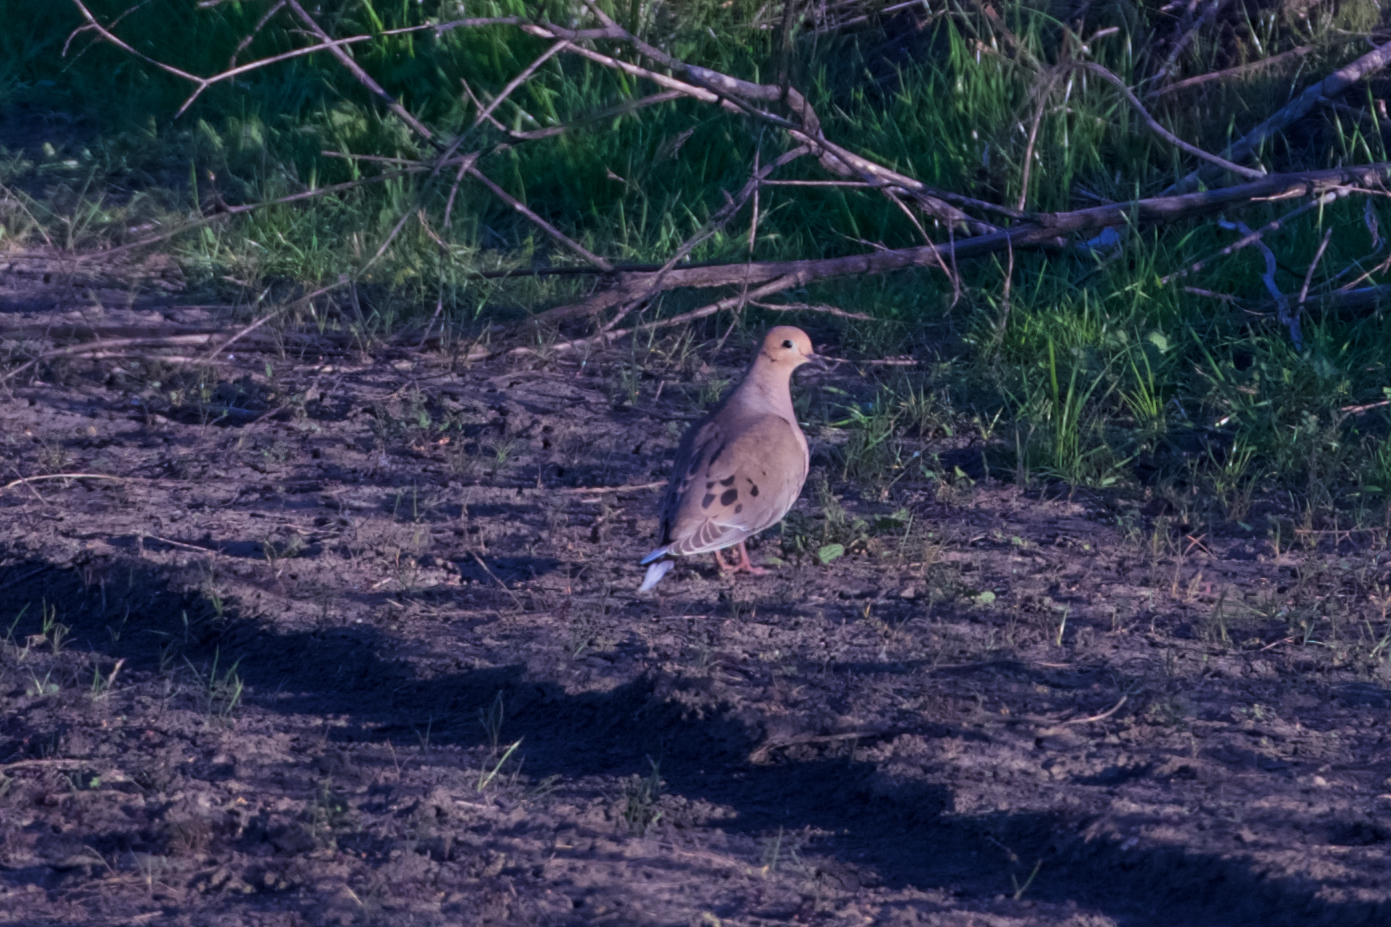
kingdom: Animalia
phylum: Chordata
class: Aves
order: Columbiformes
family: Columbidae
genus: Zenaida
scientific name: Zenaida macroura
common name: Mourning dove
